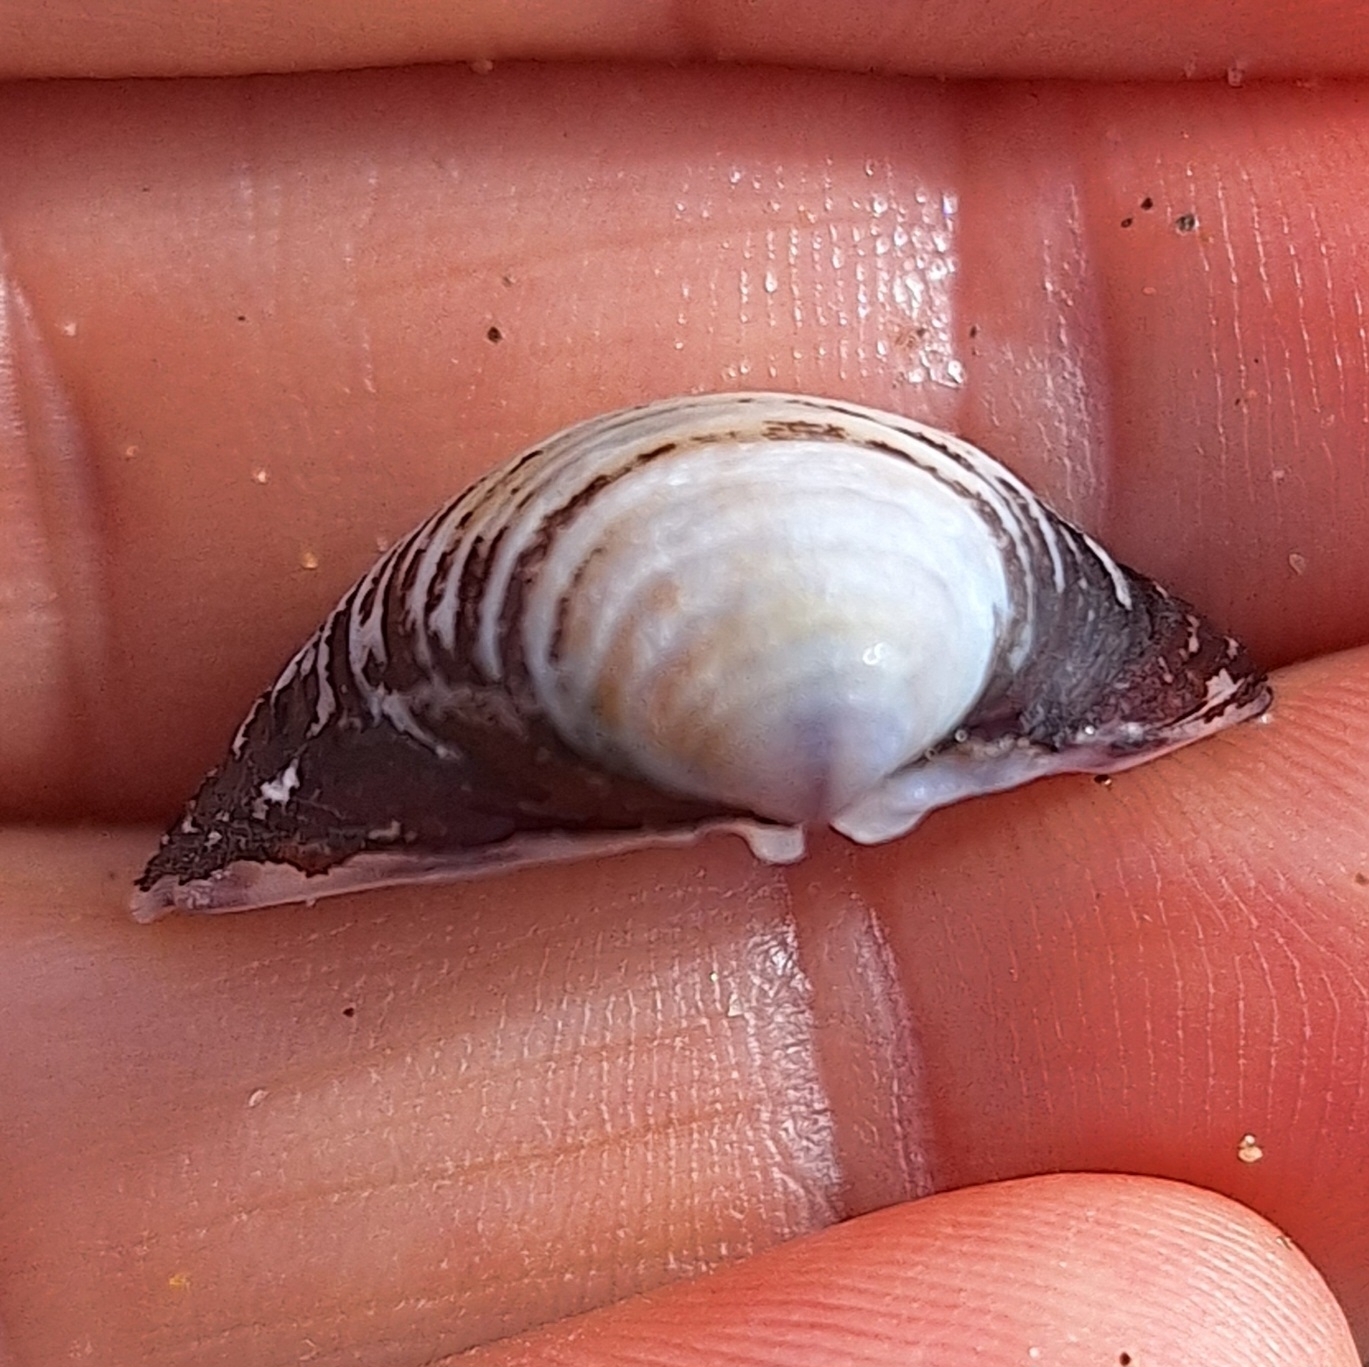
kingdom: Animalia
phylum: Mollusca
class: Bivalvia
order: Venerida
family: Cyrenidae
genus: Corbicula
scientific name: Corbicula fluminea
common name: Asian clam
